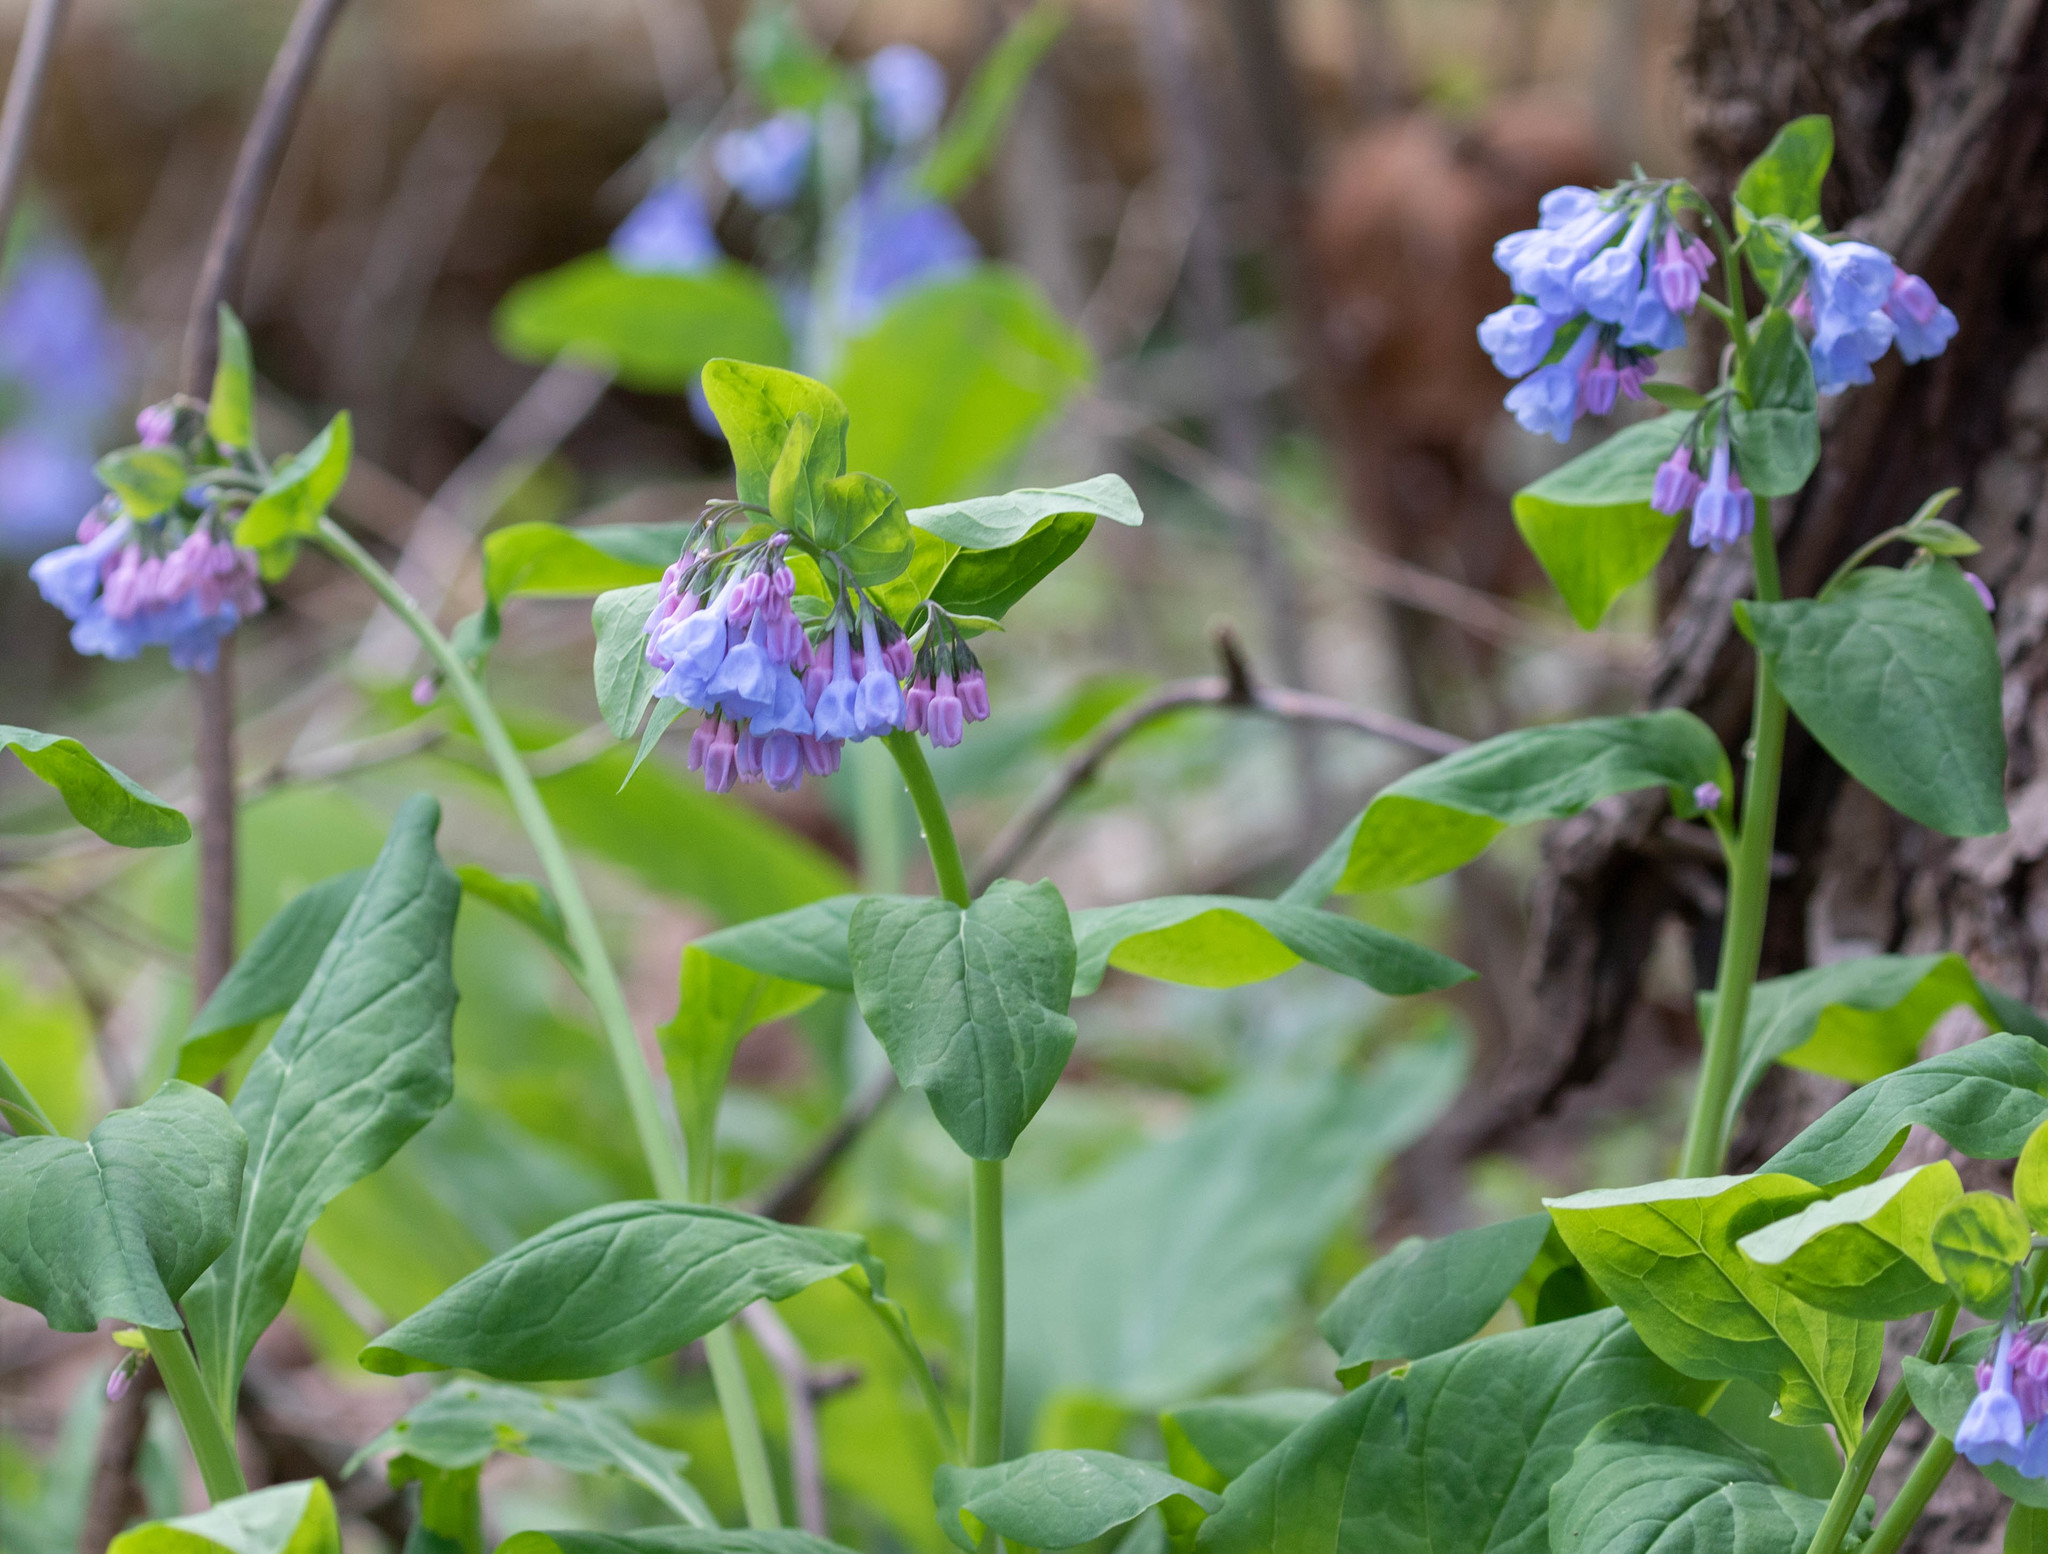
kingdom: Plantae
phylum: Tracheophyta
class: Magnoliopsida
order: Boraginales
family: Boraginaceae
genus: Mertensia
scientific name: Mertensia virginica
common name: Virginia bluebells
